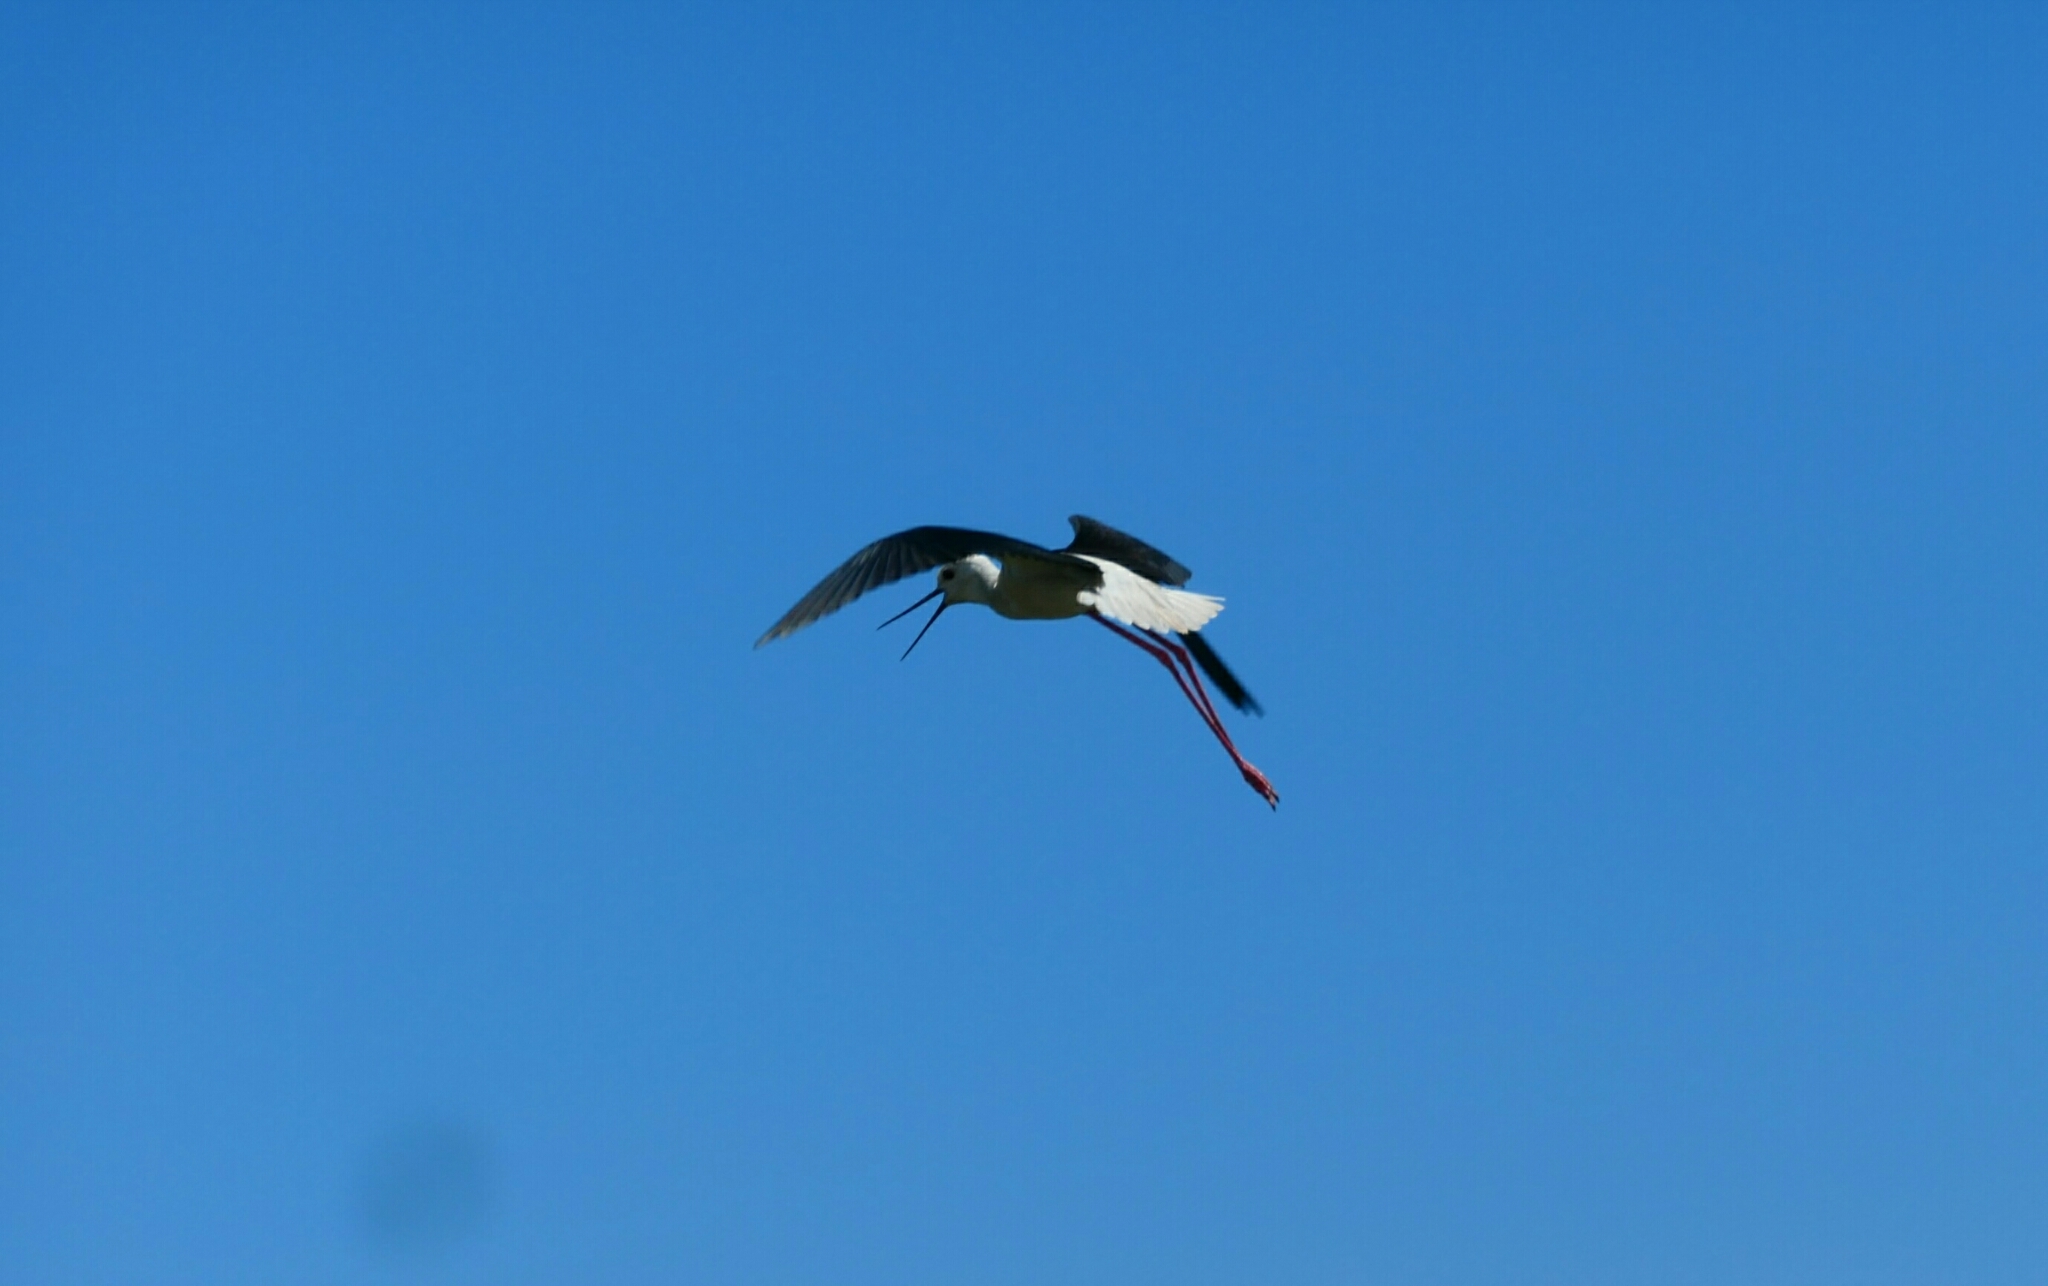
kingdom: Animalia
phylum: Chordata
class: Aves
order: Charadriiformes
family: Recurvirostridae
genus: Himantopus
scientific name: Himantopus himantopus
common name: Black-winged stilt
